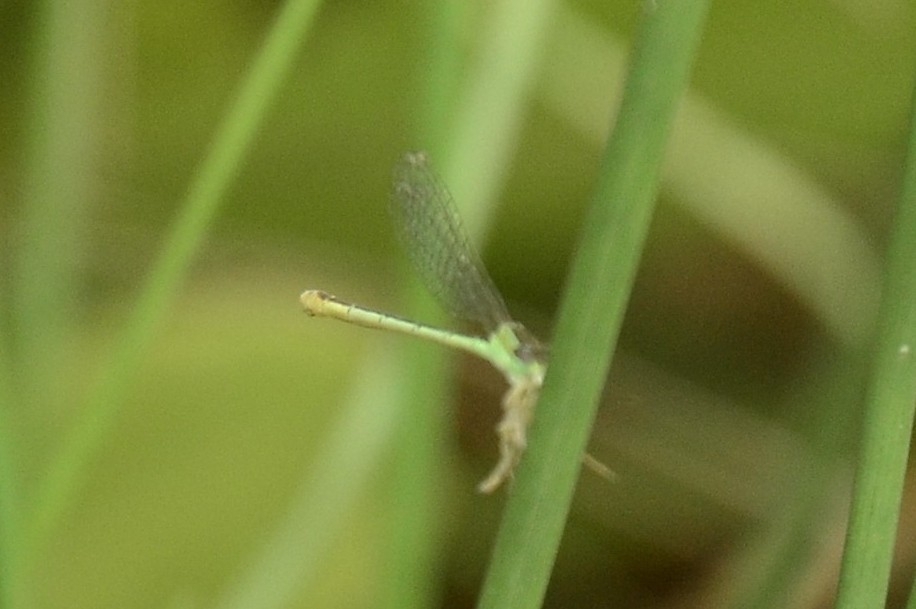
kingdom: Animalia
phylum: Arthropoda
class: Insecta
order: Odonata
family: Coenagrionidae
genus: Agriocnemis
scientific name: Agriocnemis pygmaea
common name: Pygmy wisp
